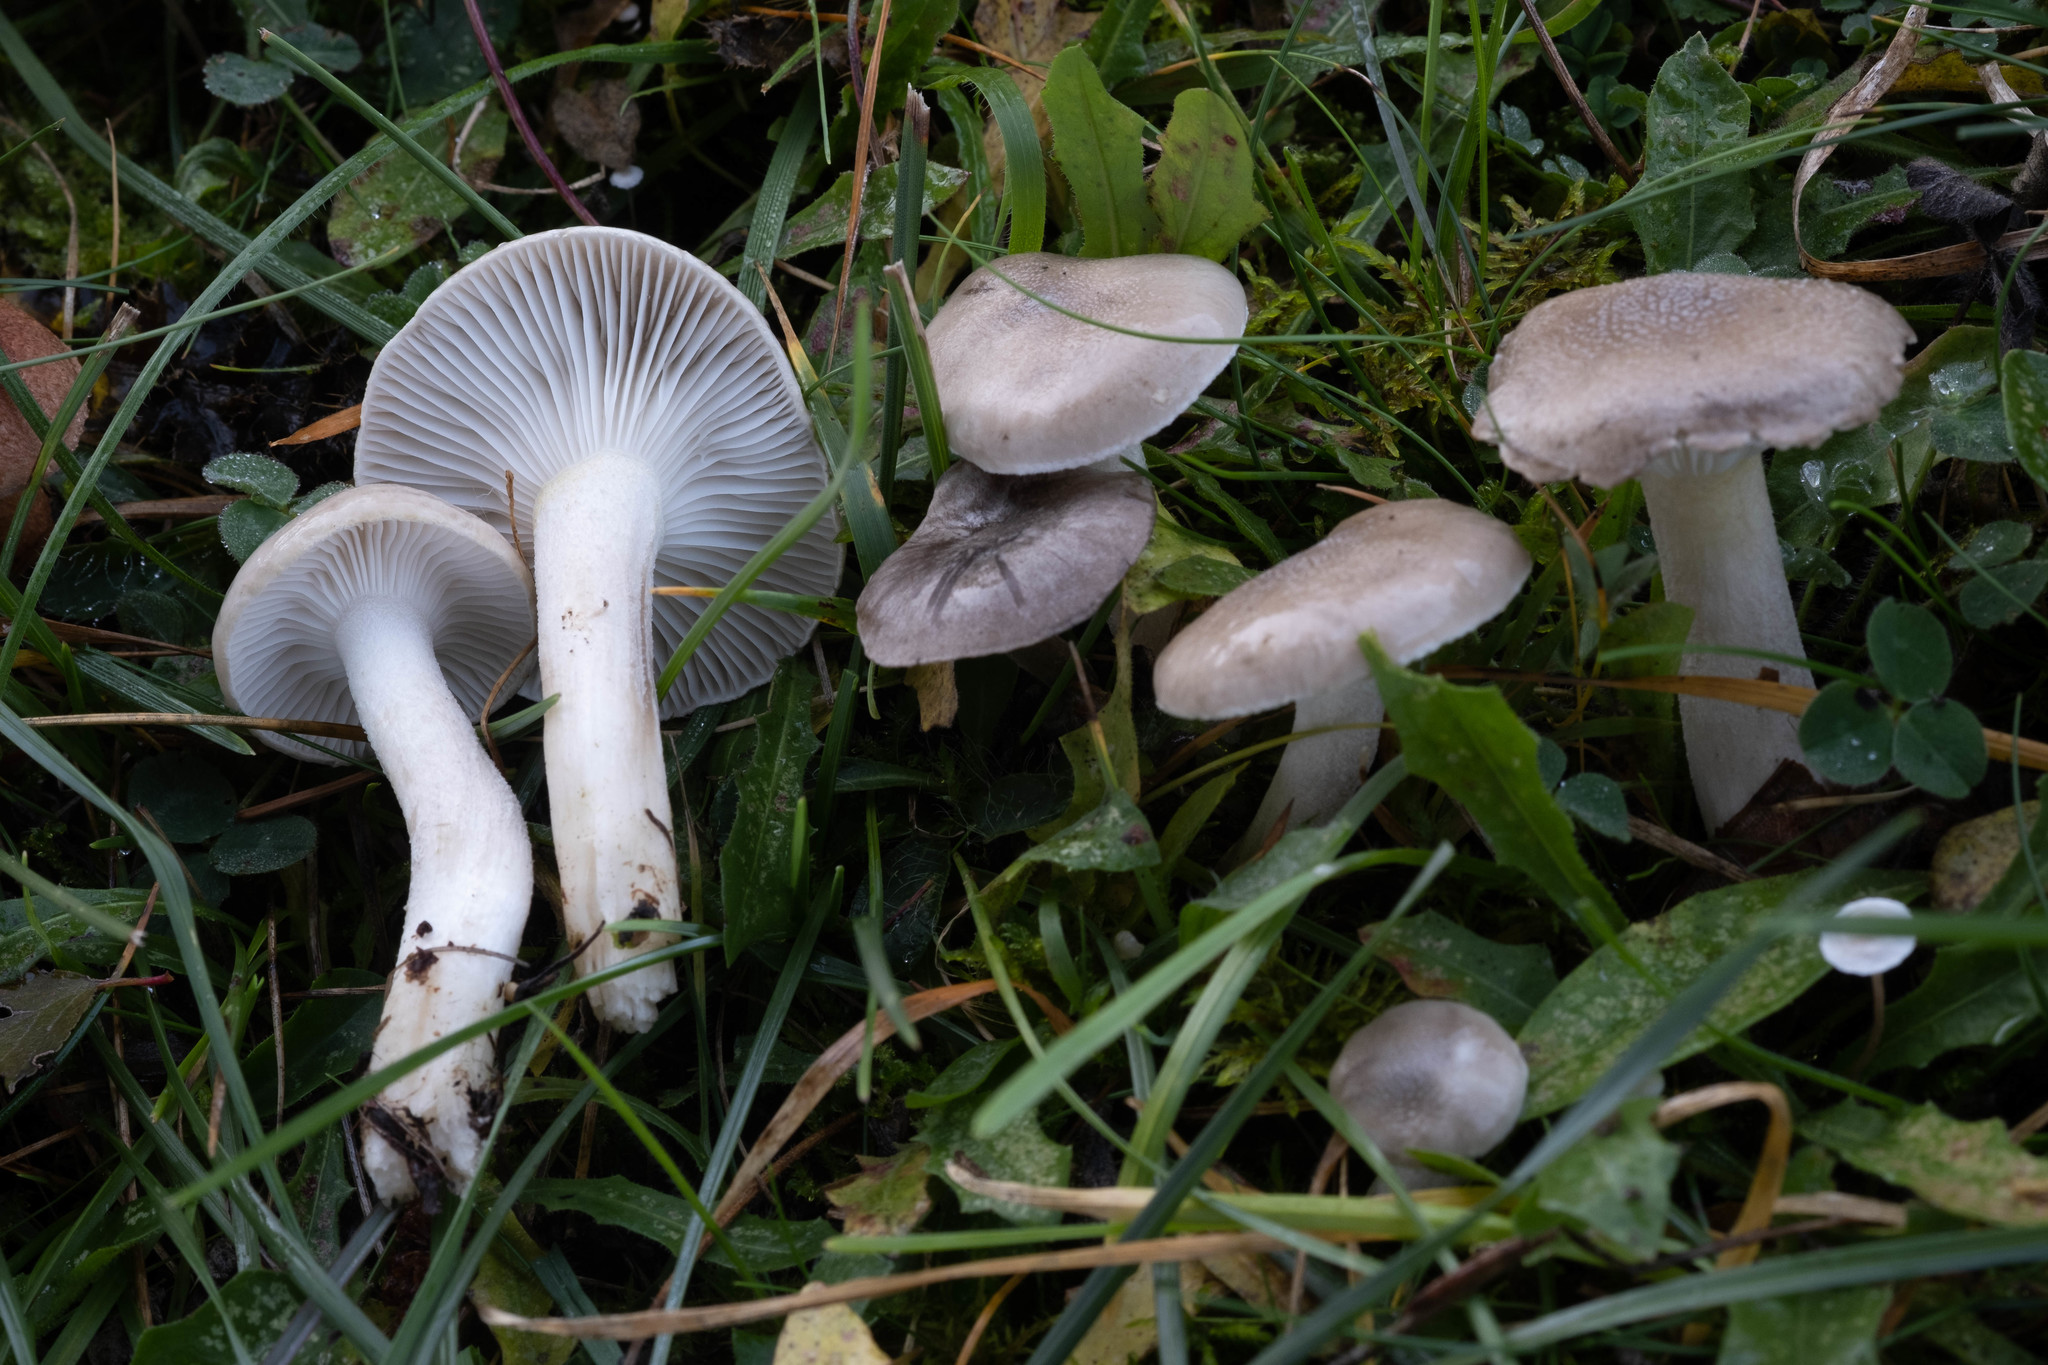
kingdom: Fungi
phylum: Basidiomycota
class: Agaricomycetes
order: Agaricales
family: Hygrophoraceae
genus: Hygrophorus
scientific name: Hygrophorus agathosmus
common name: Almond woodwax
